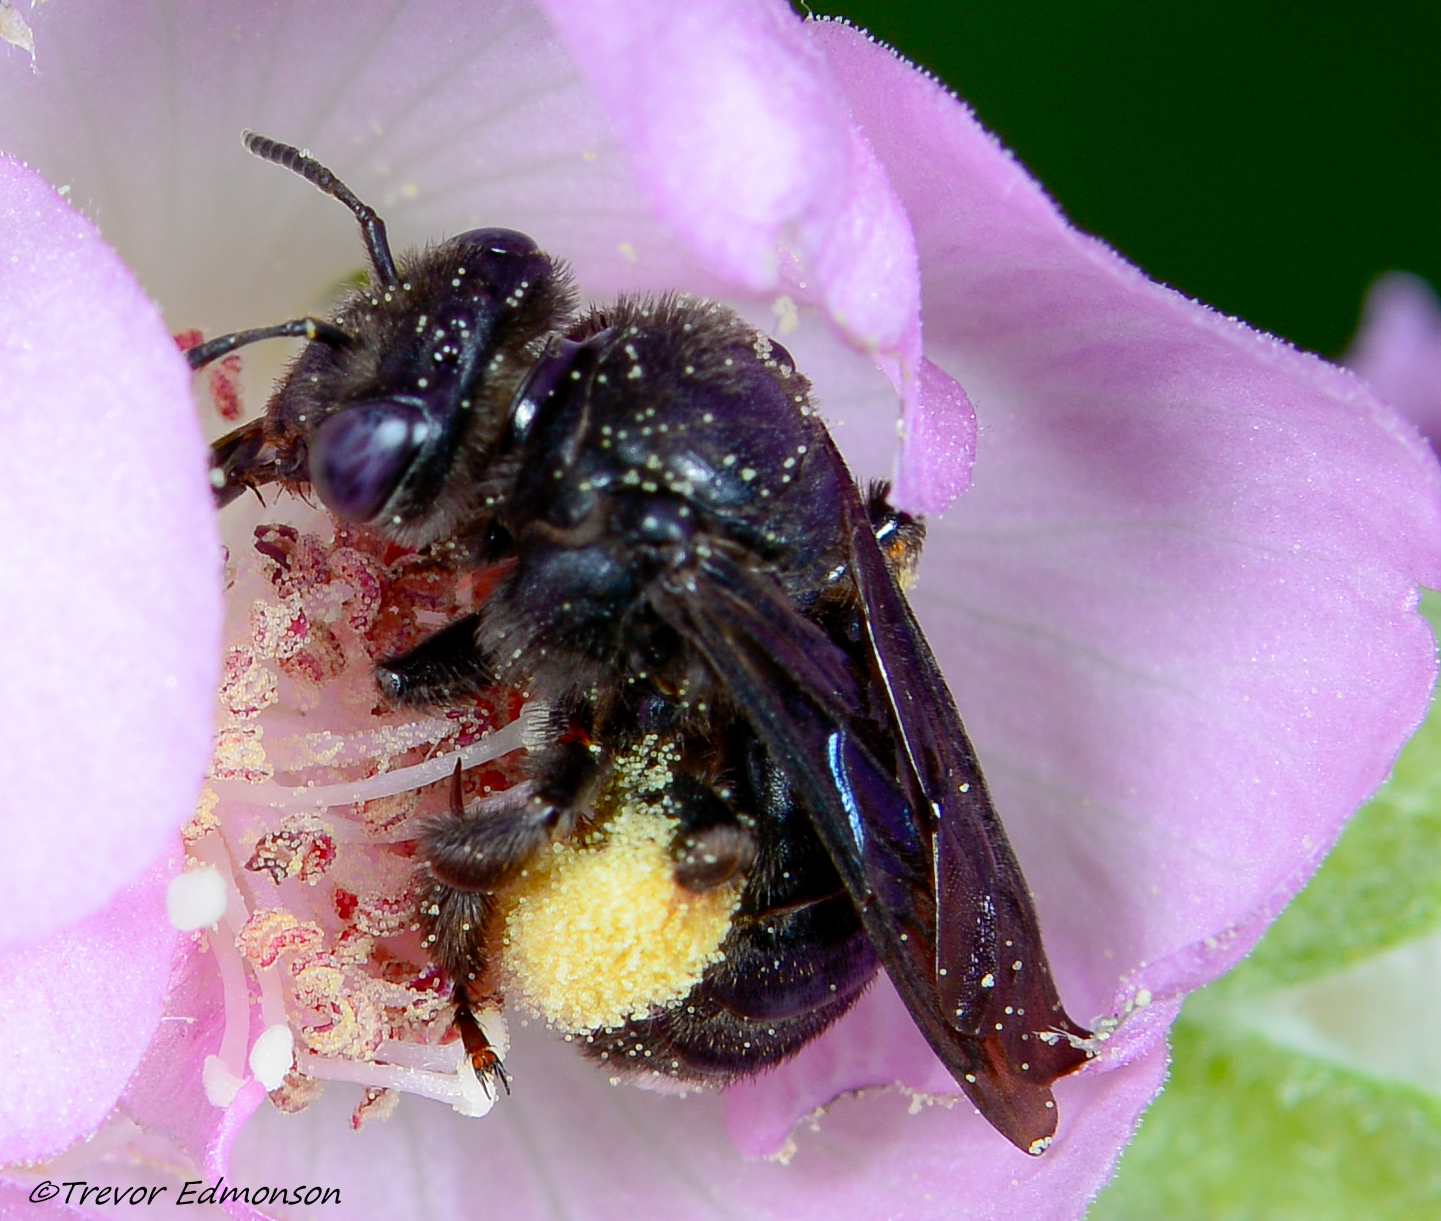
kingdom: Animalia
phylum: Arthropoda
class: Insecta
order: Hymenoptera
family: Apidae
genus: Melissodes
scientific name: Melissodes bimaculatus
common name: Two-spotted long-horned bee
